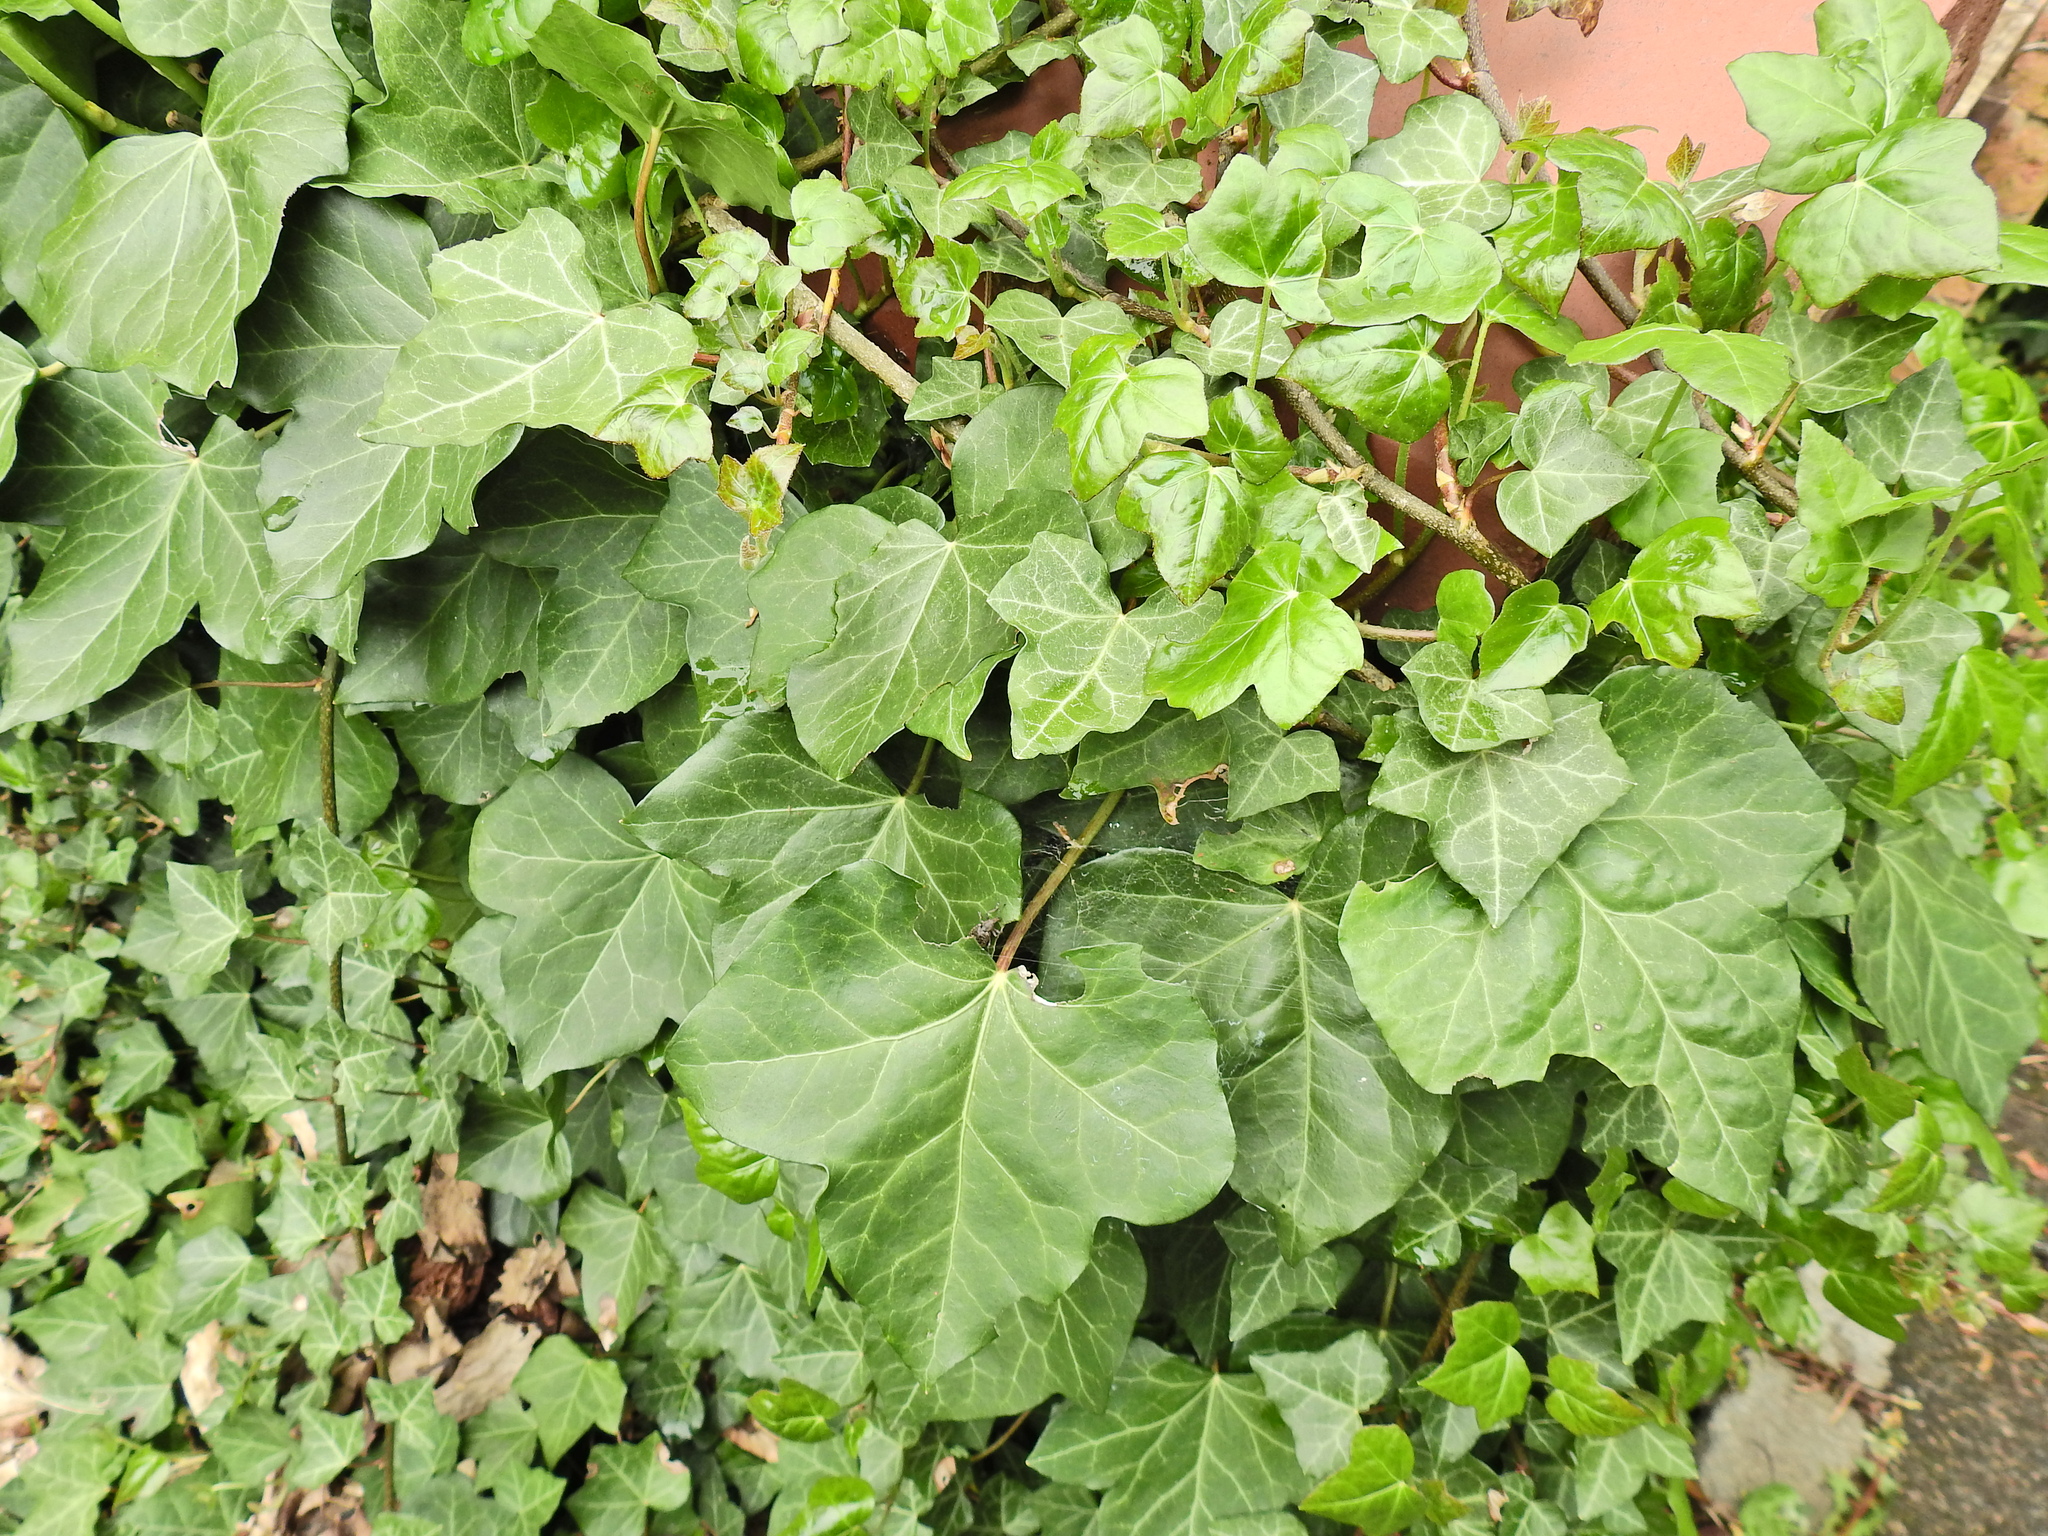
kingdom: Plantae
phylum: Tracheophyta
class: Magnoliopsida
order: Apiales
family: Araliaceae
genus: Hedera
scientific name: Hedera helix
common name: Ivy
